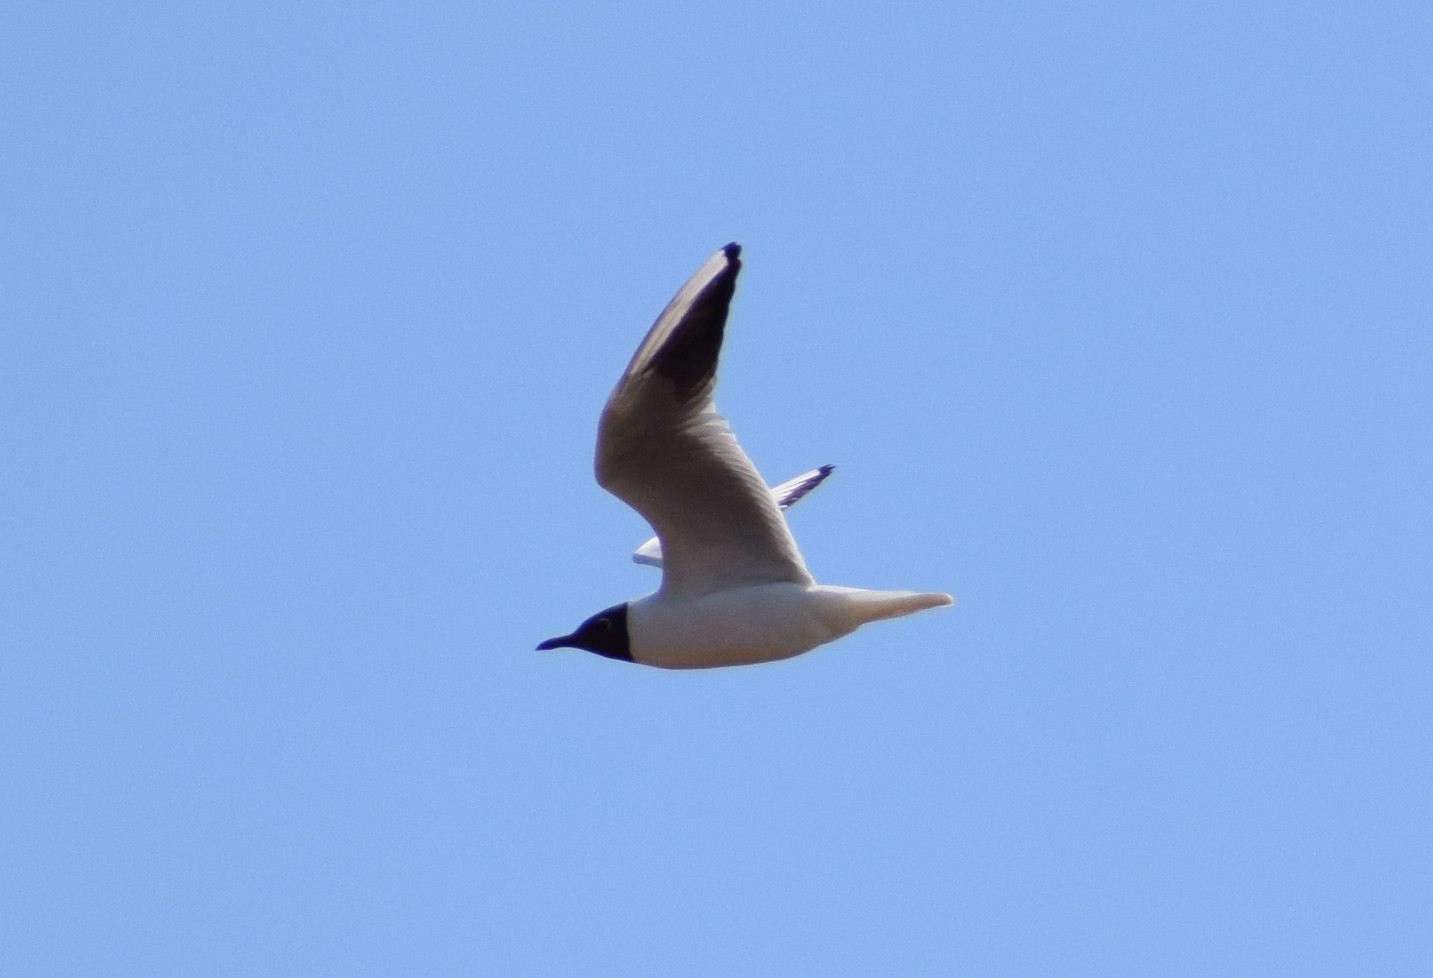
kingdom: Animalia
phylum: Chordata
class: Aves
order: Charadriiformes
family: Laridae
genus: Chroicocephalus
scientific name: Chroicocephalus ridibundus
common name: Black-headed gull
